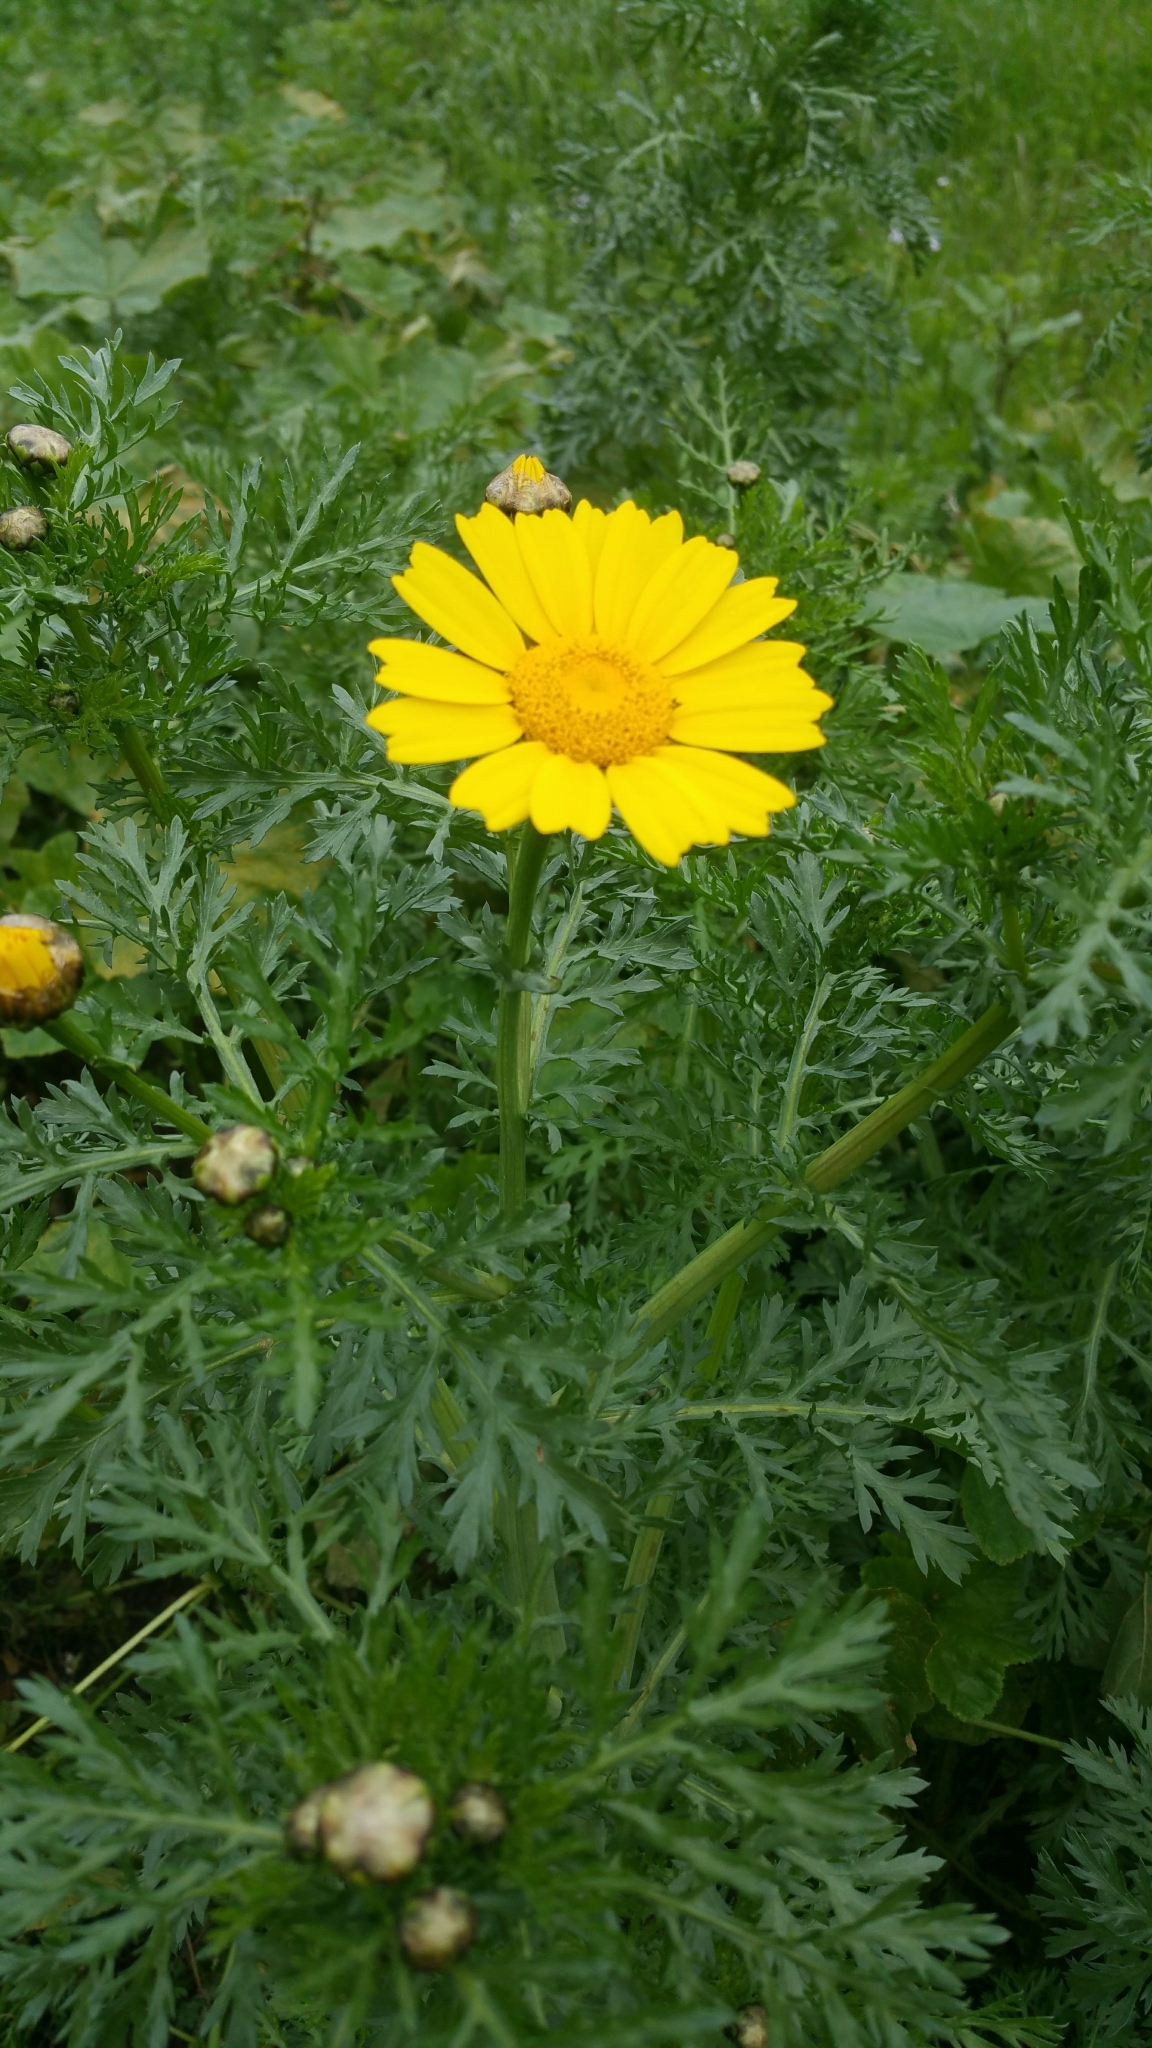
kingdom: Plantae
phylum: Tracheophyta
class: Magnoliopsida
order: Asterales
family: Asteraceae
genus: Glebionis
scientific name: Glebionis coronaria
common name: Crowndaisy
